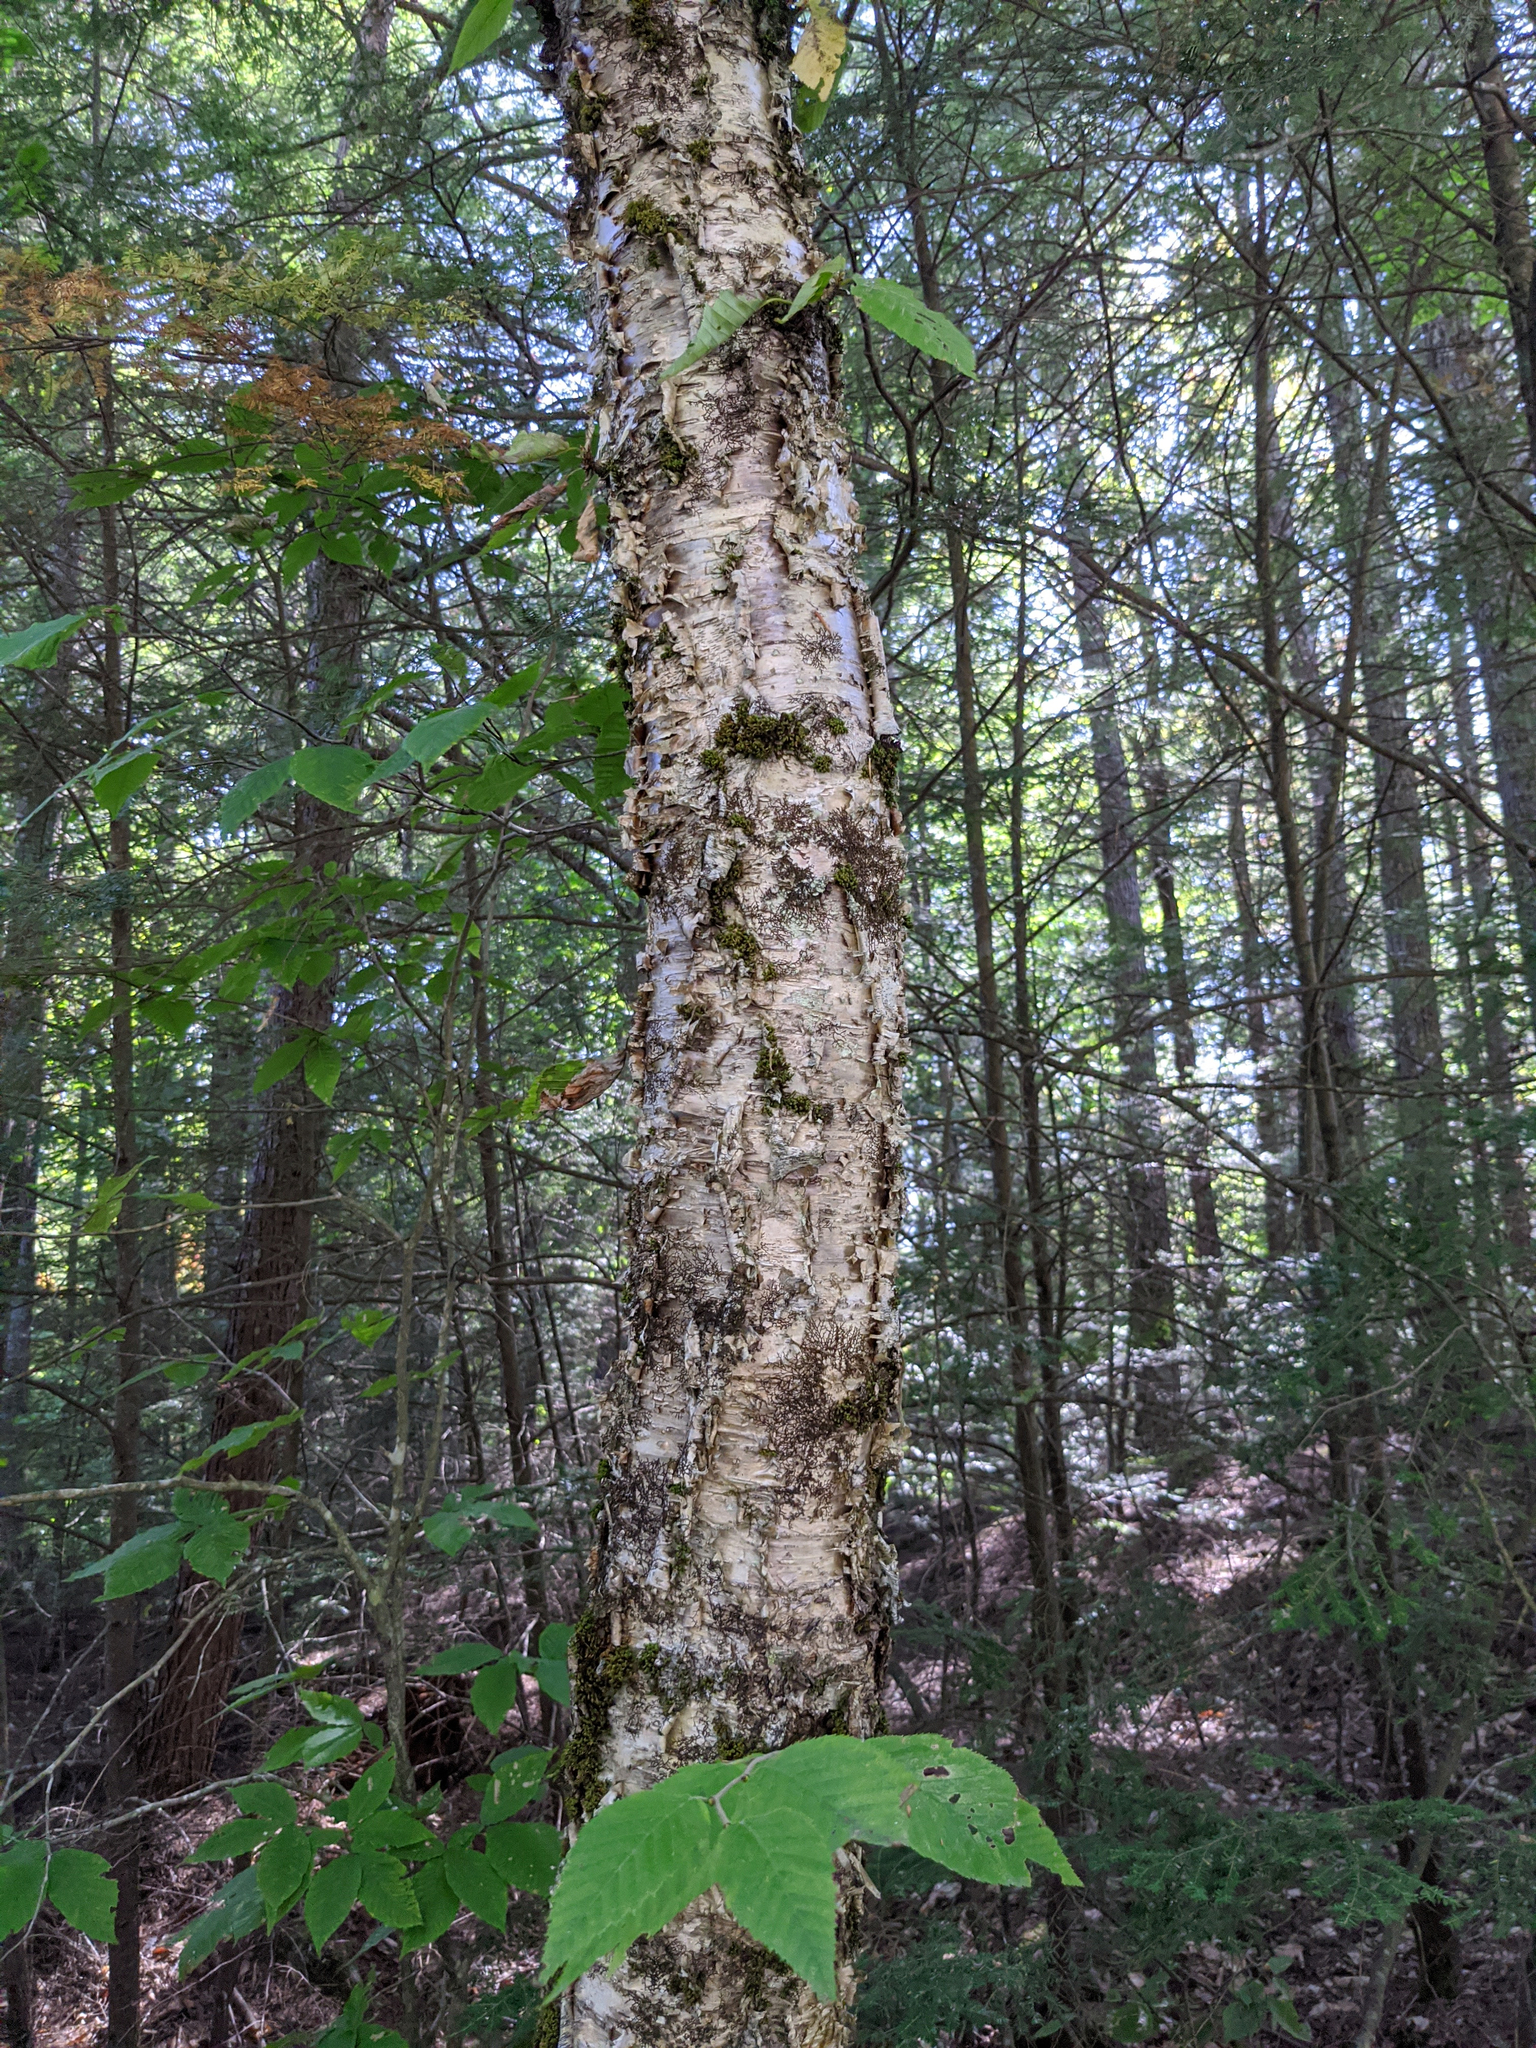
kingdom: Plantae
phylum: Tracheophyta
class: Magnoliopsida
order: Fagales
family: Betulaceae
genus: Betula
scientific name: Betula alleghaniensis
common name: Yellow birch
